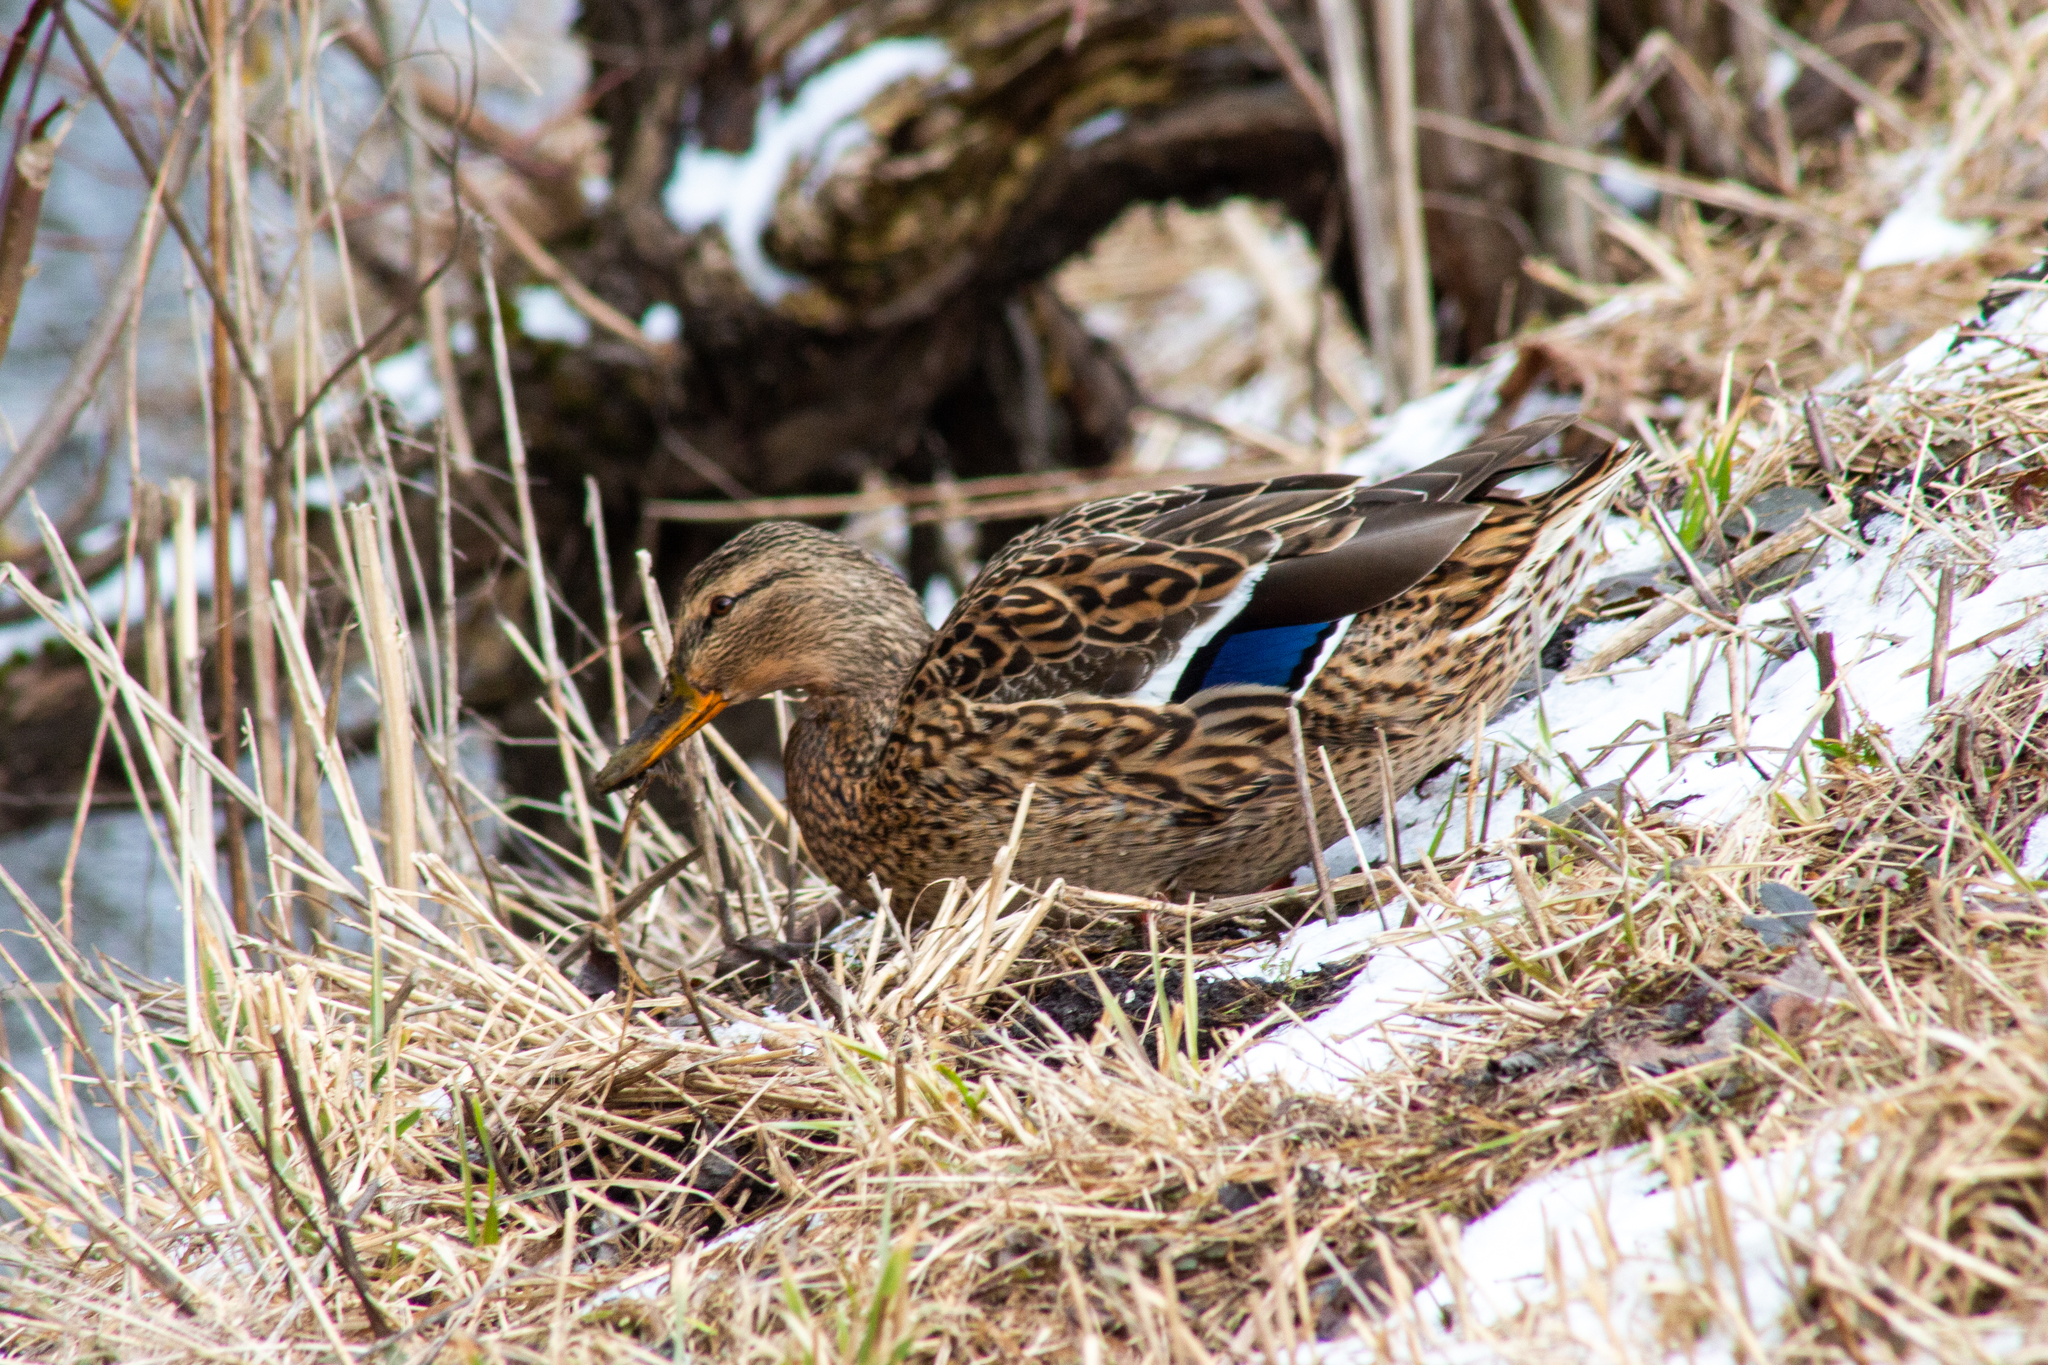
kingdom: Animalia
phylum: Chordata
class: Aves
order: Anseriformes
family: Anatidae
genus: Anas
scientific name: Anas platyrhynchos
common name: Mallard
